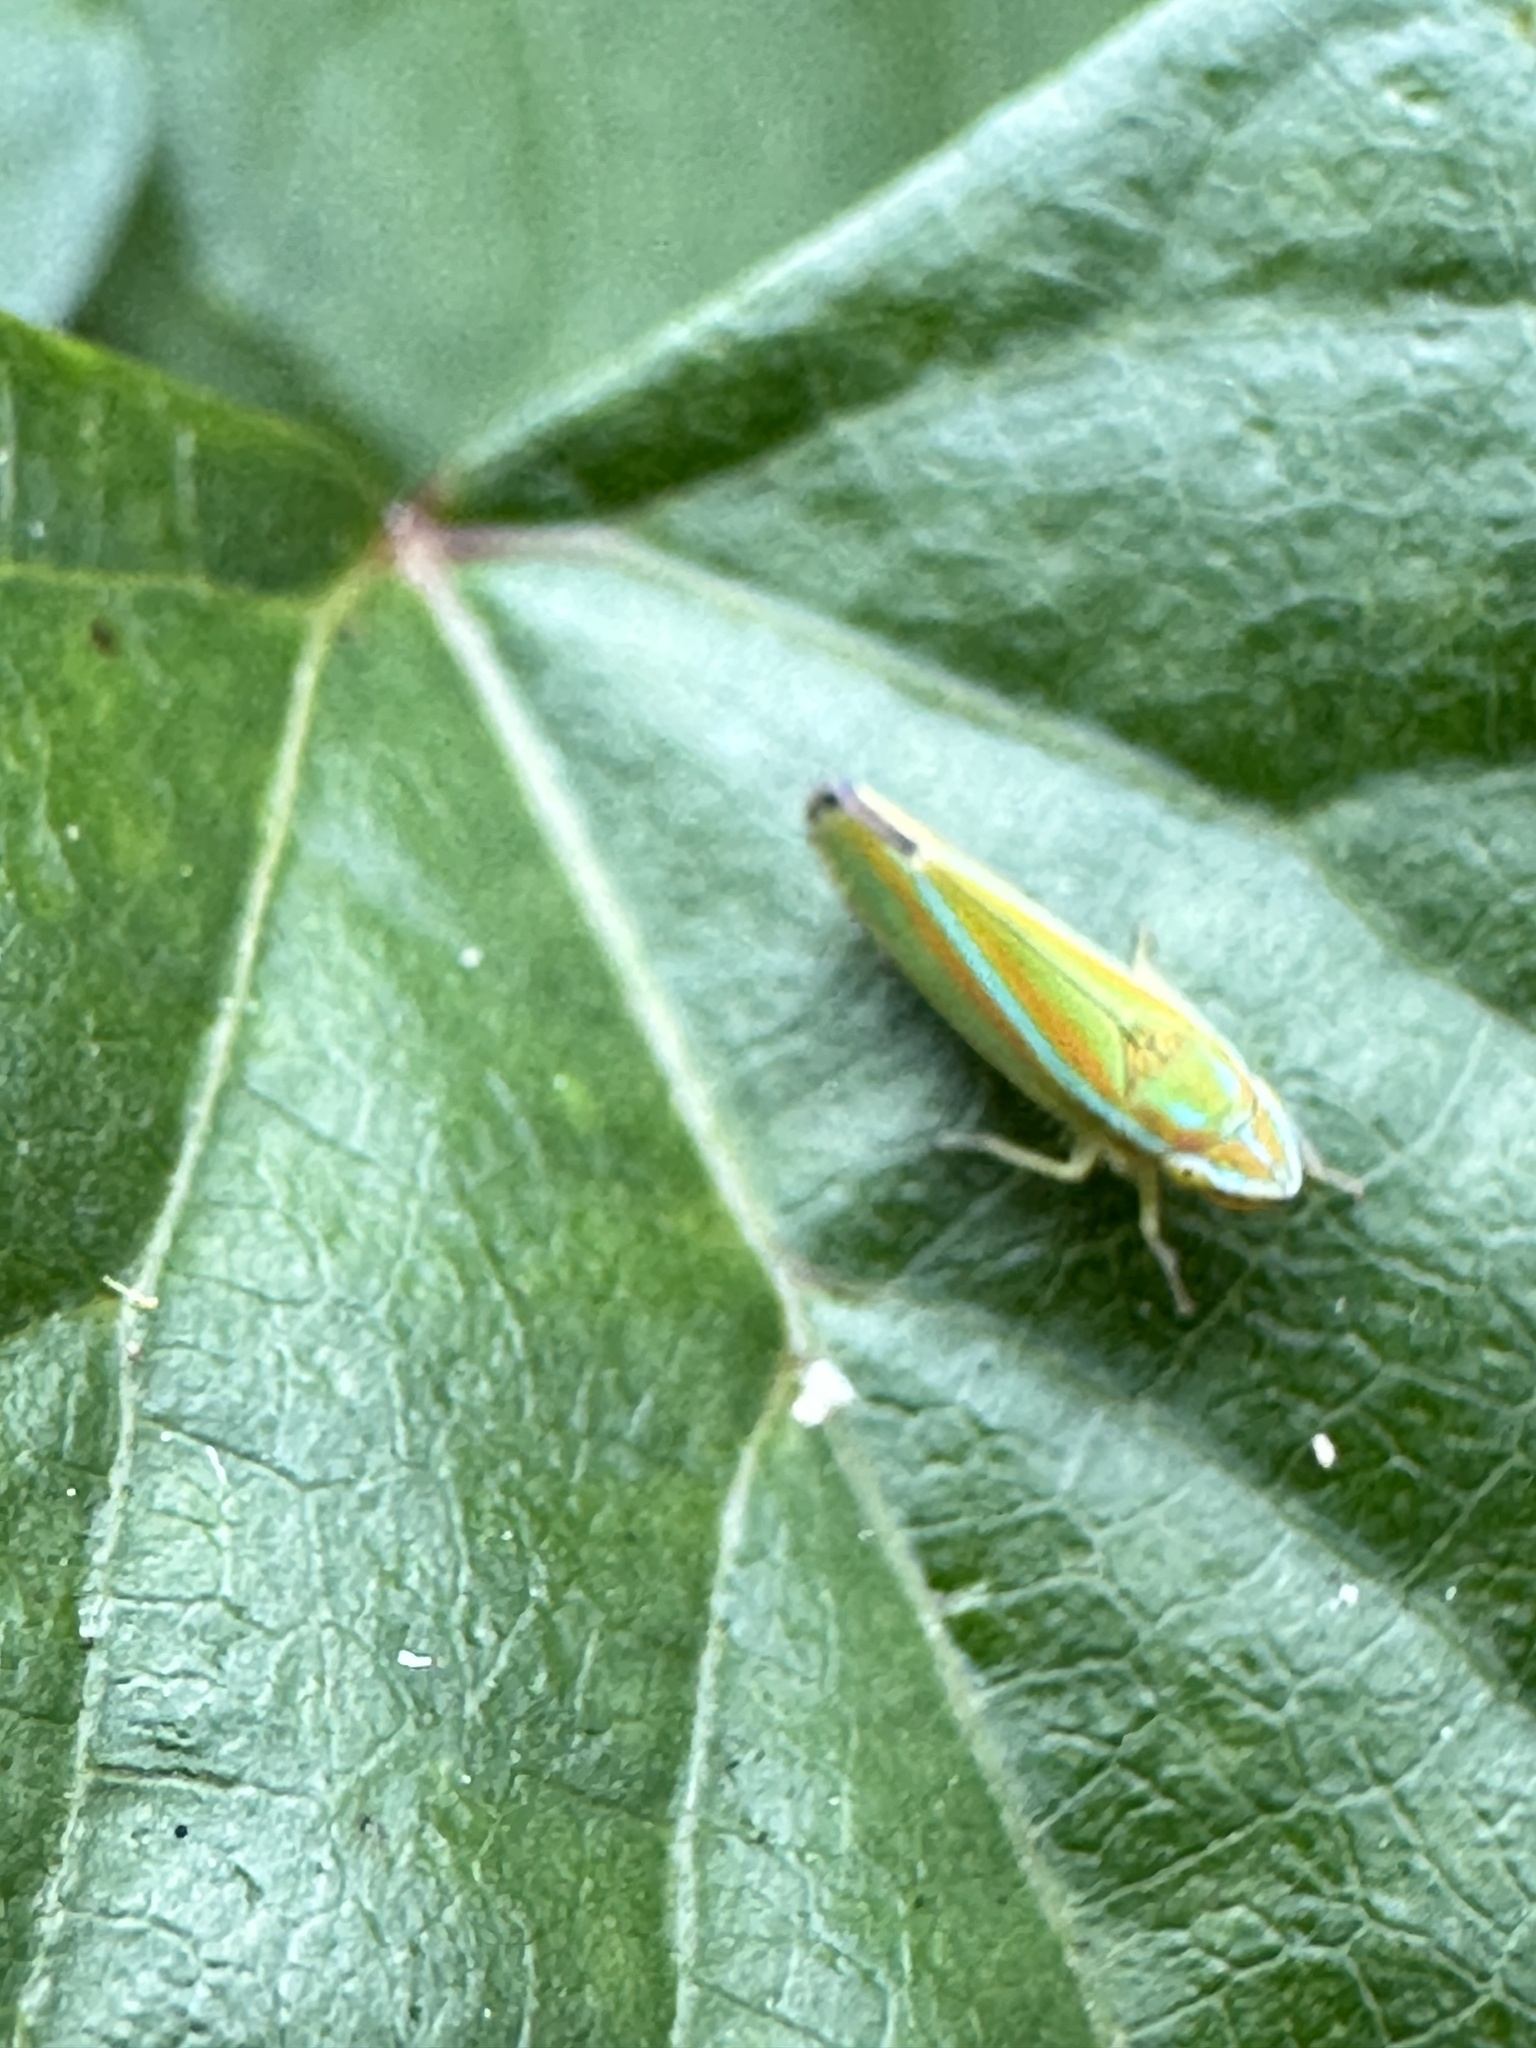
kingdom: Animalia
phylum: Arthropoda
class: Insecta
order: Hemiptera
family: Cicadellidae
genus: Graphocephala
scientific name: Graphocephala versuta
